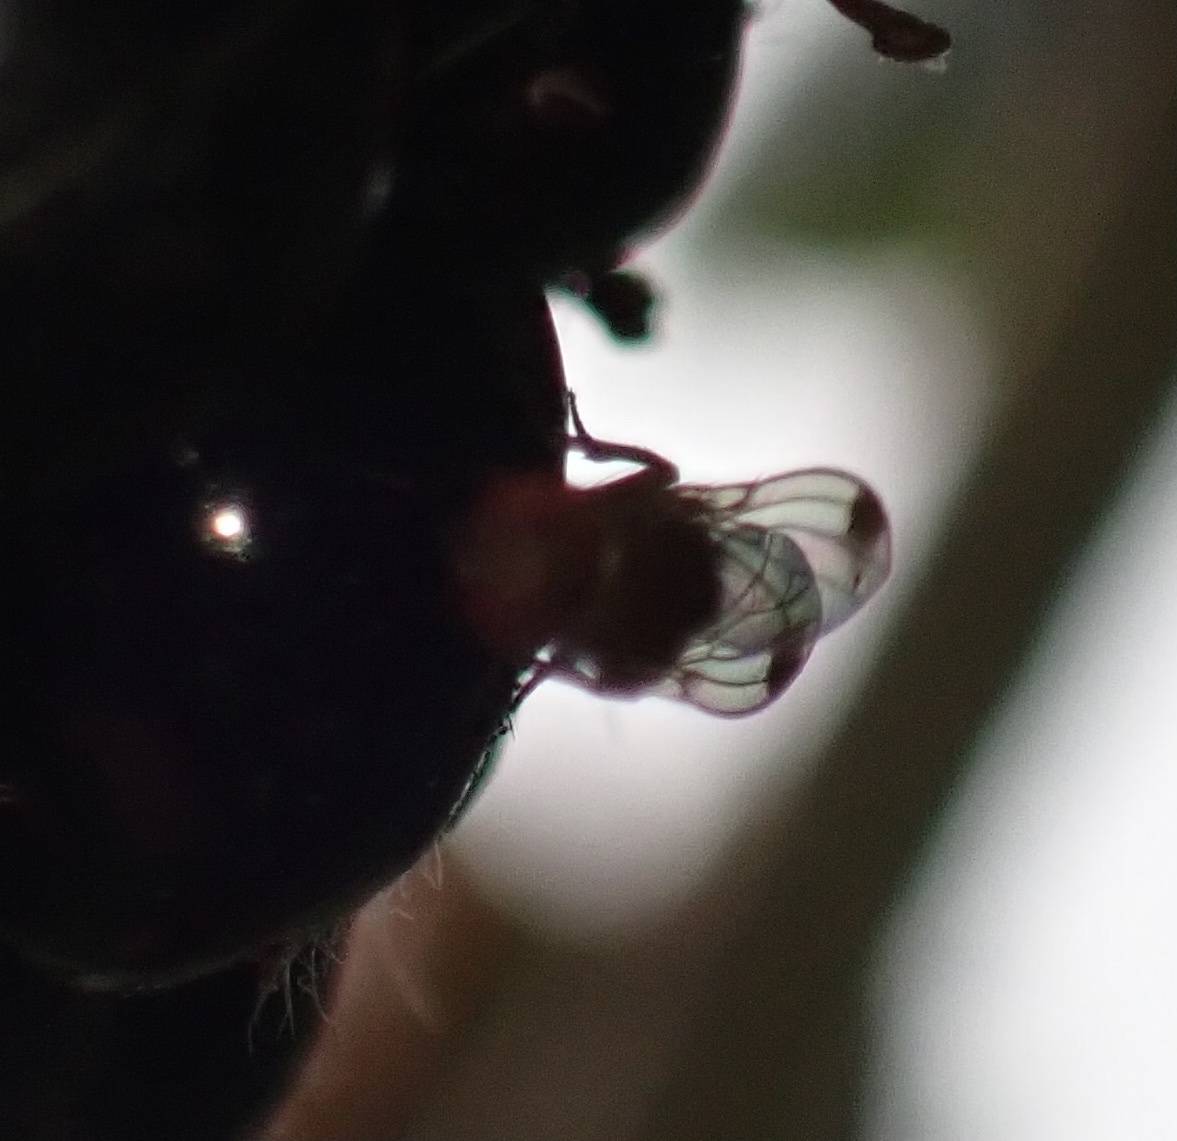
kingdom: Animalia
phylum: Arthropoda
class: Insecta
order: Diptera
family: Drosophilidae
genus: Drosophila
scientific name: Drosophila suzukii
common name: Spotted-wing drosophila
